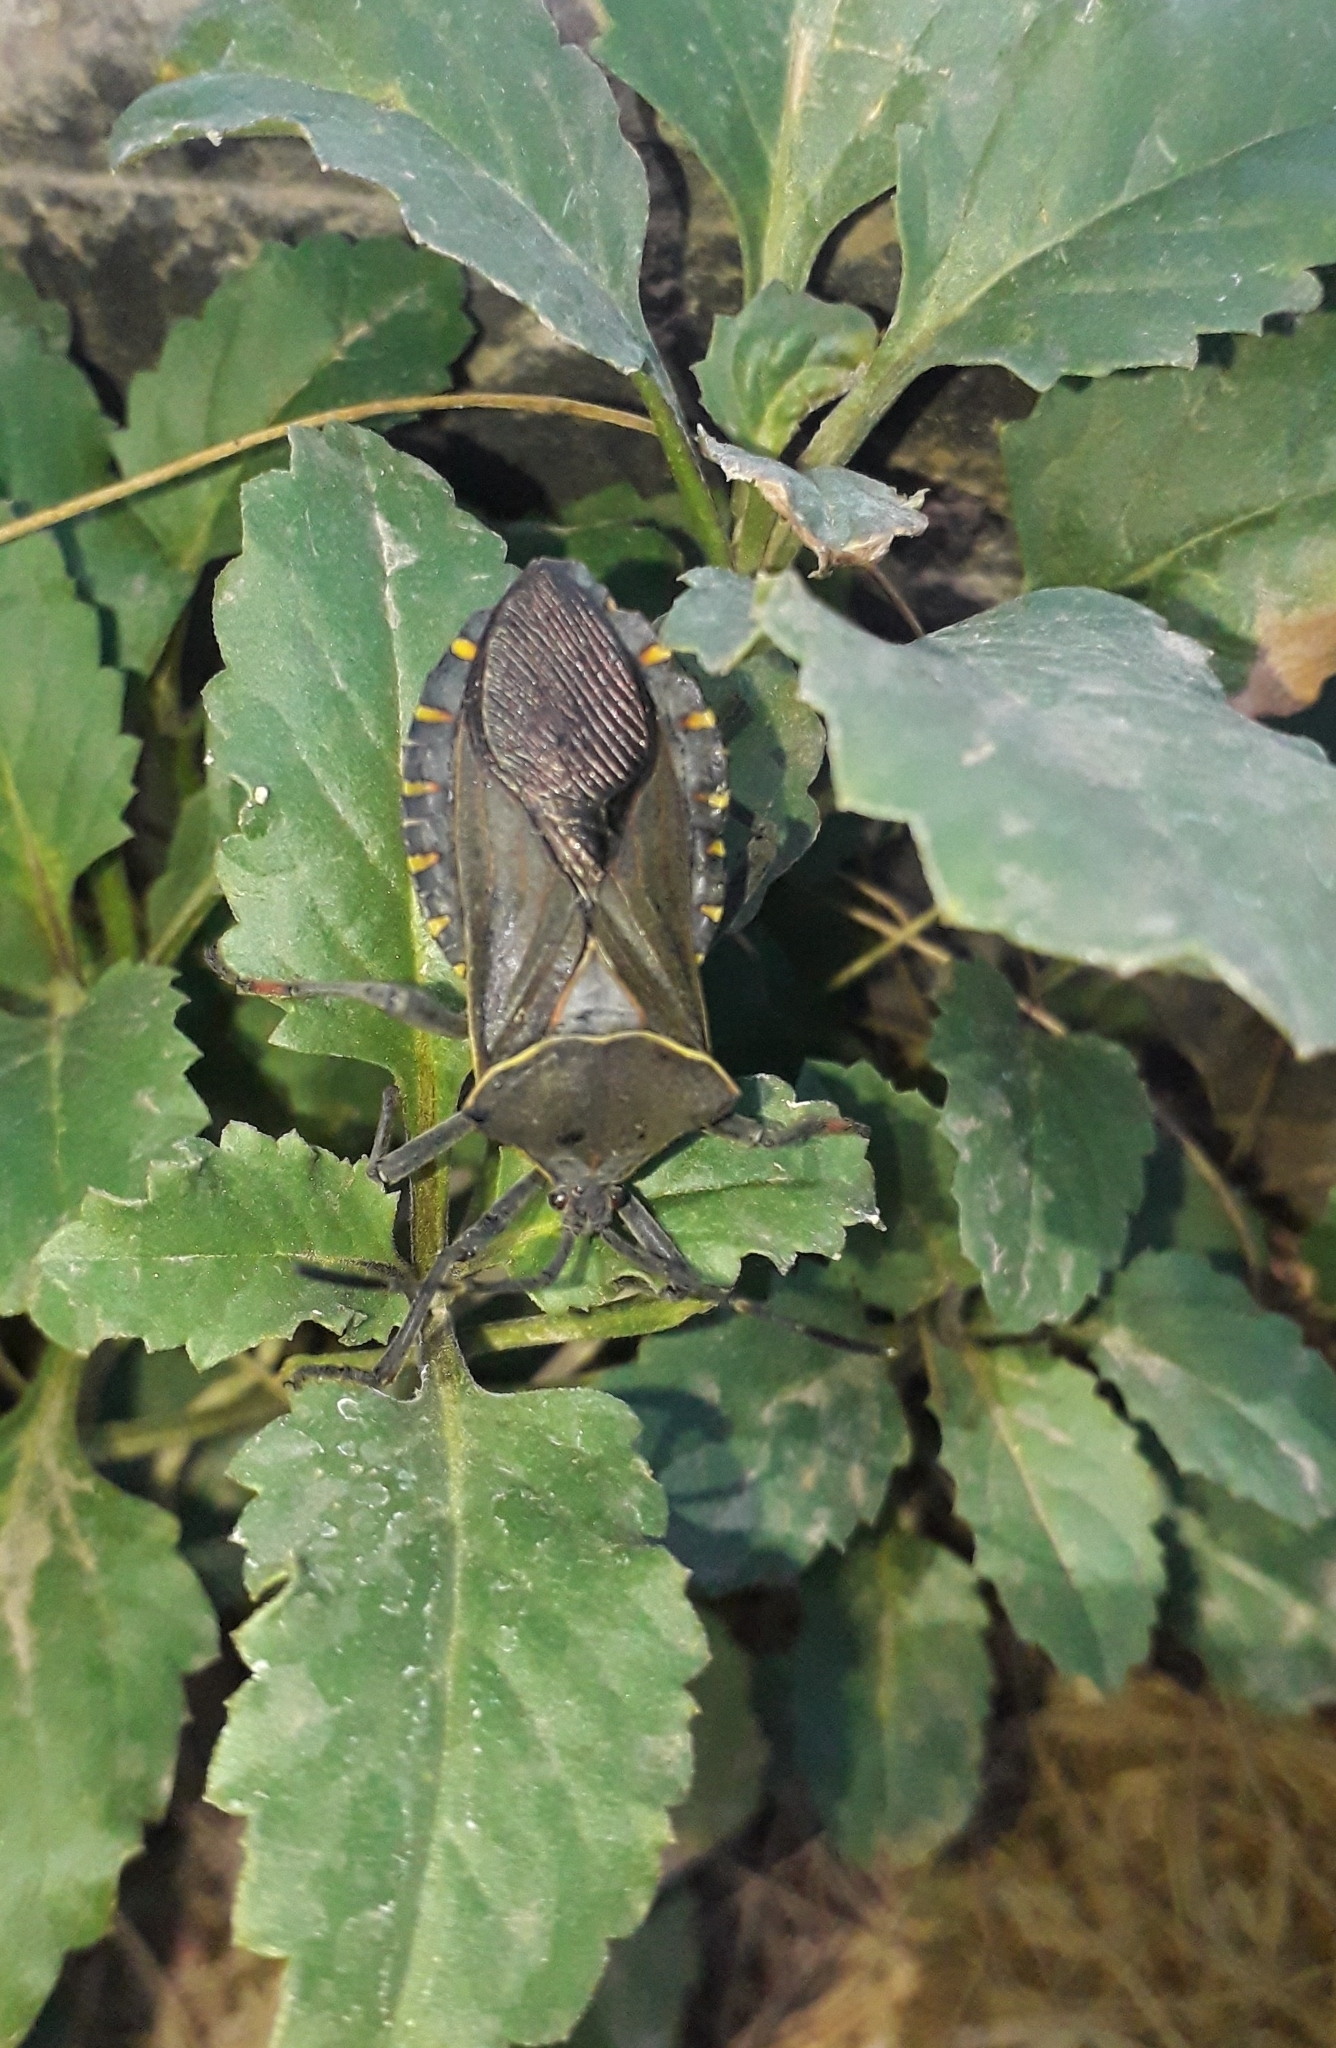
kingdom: Animalia
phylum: Arthropoda
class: Insecta
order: Hemiptera
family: Coreidae
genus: Pachylis
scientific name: Pachylis argentinus
